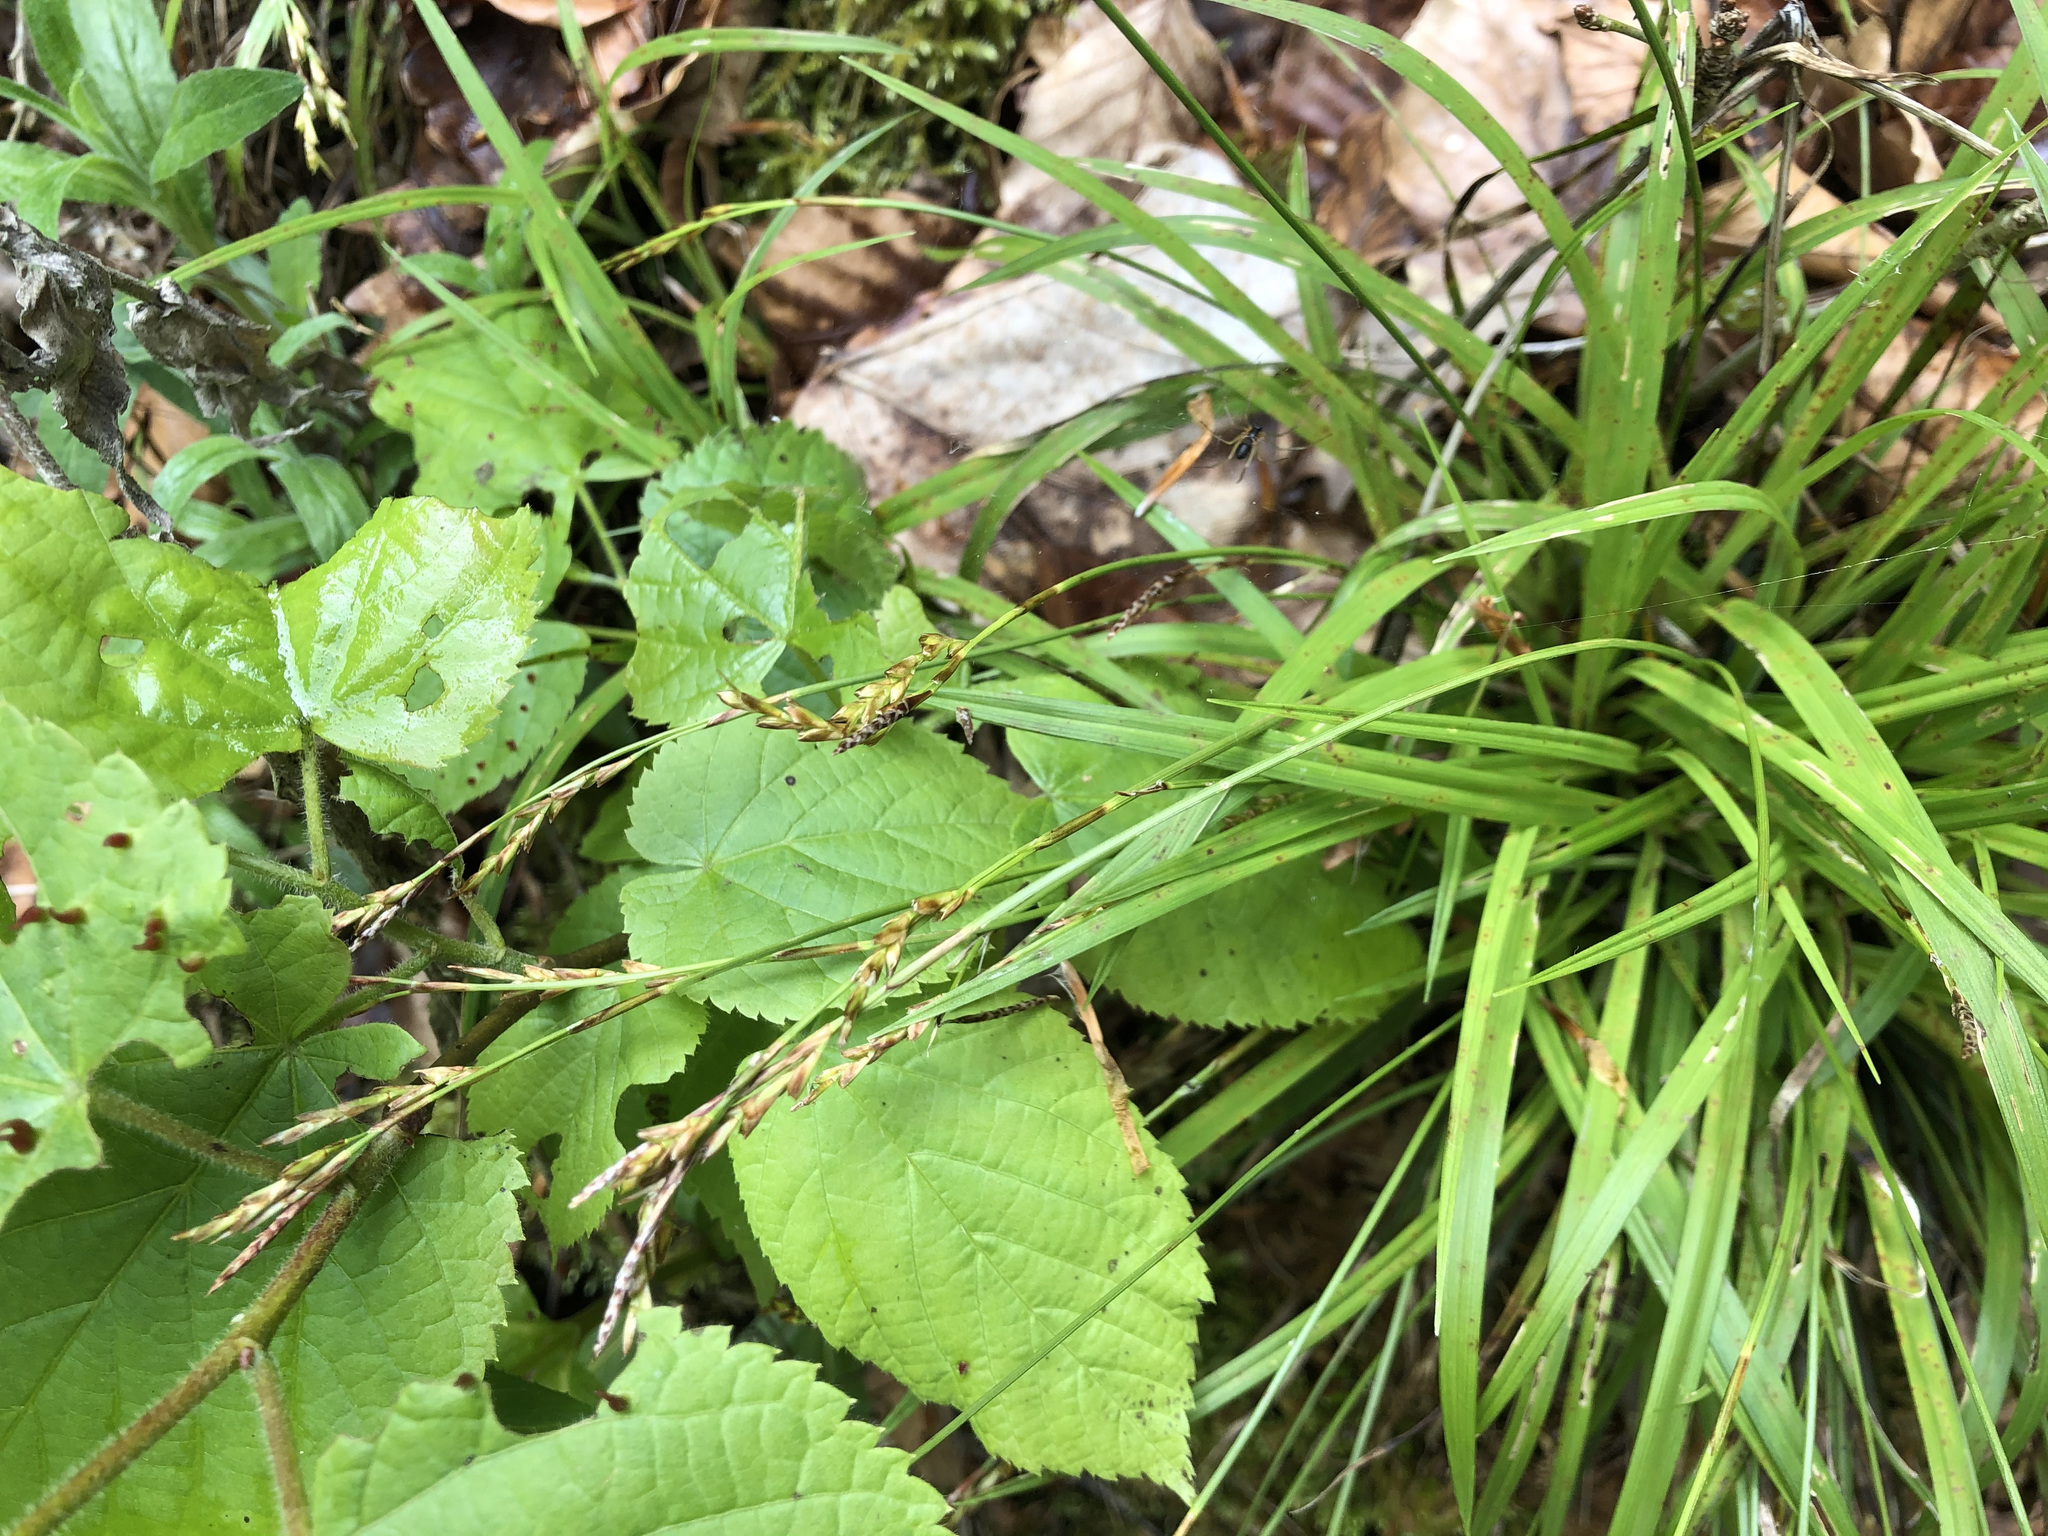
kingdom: Plantae
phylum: Tracheophyta
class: Liliopsida
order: Poales
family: Cyperaceae
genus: Carex
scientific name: Carex digitata
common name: Fingered sedge
